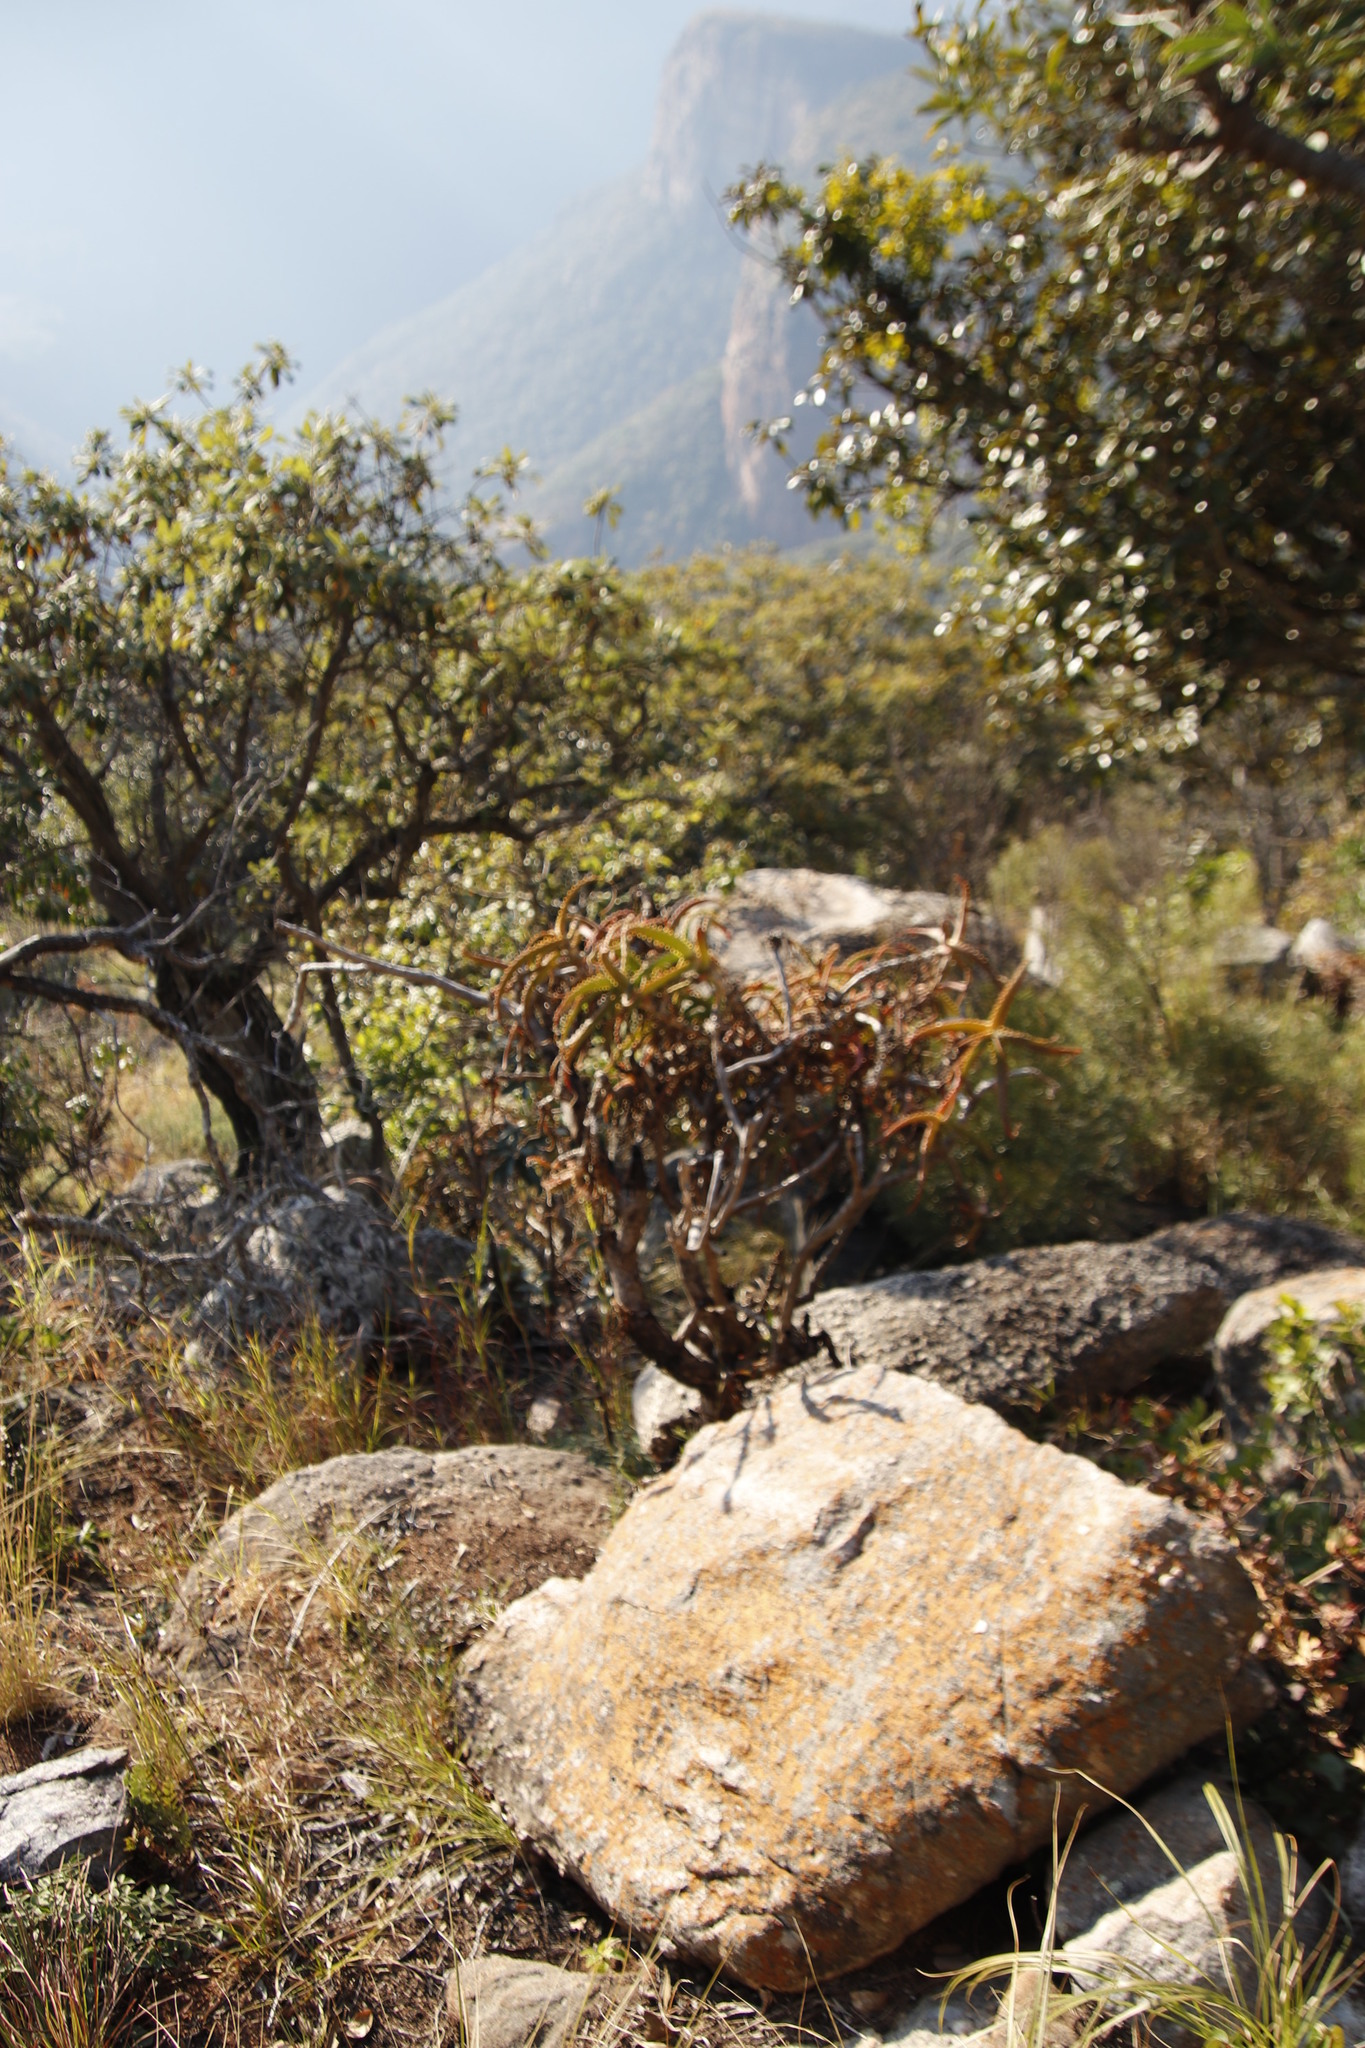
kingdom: Plantae
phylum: Tracheophyta
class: Liliopsida
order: Asparagales
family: Asphodelaceae
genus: Aloe
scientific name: Aloe arborescens
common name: Candelabra aloe
